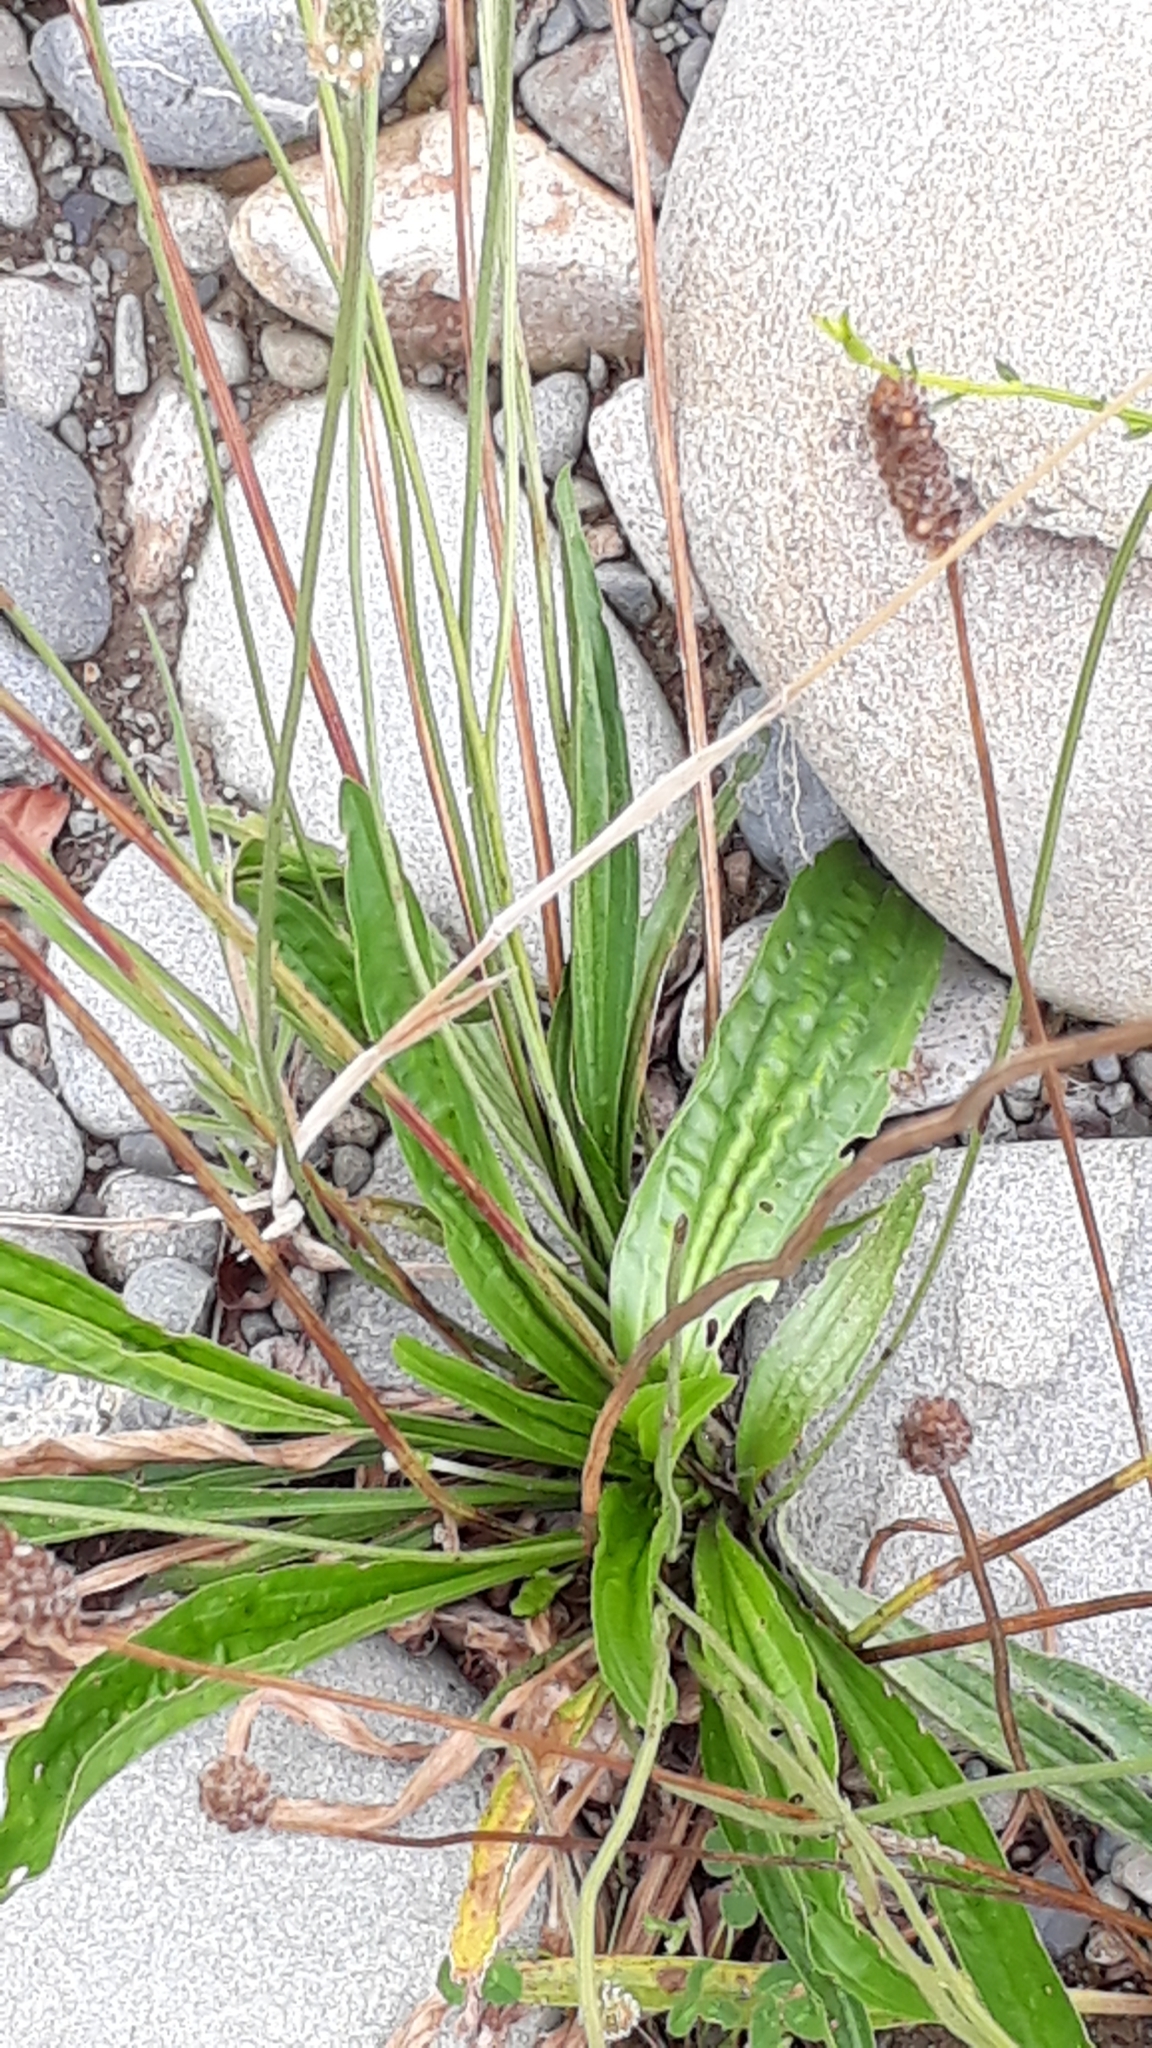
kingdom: Plantae
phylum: Tracheophyta
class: Magnoliopsida
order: Lamiales
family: Plantaginaceae
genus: Plantago
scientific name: Plantago lanceolata
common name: Ribwort plantain
